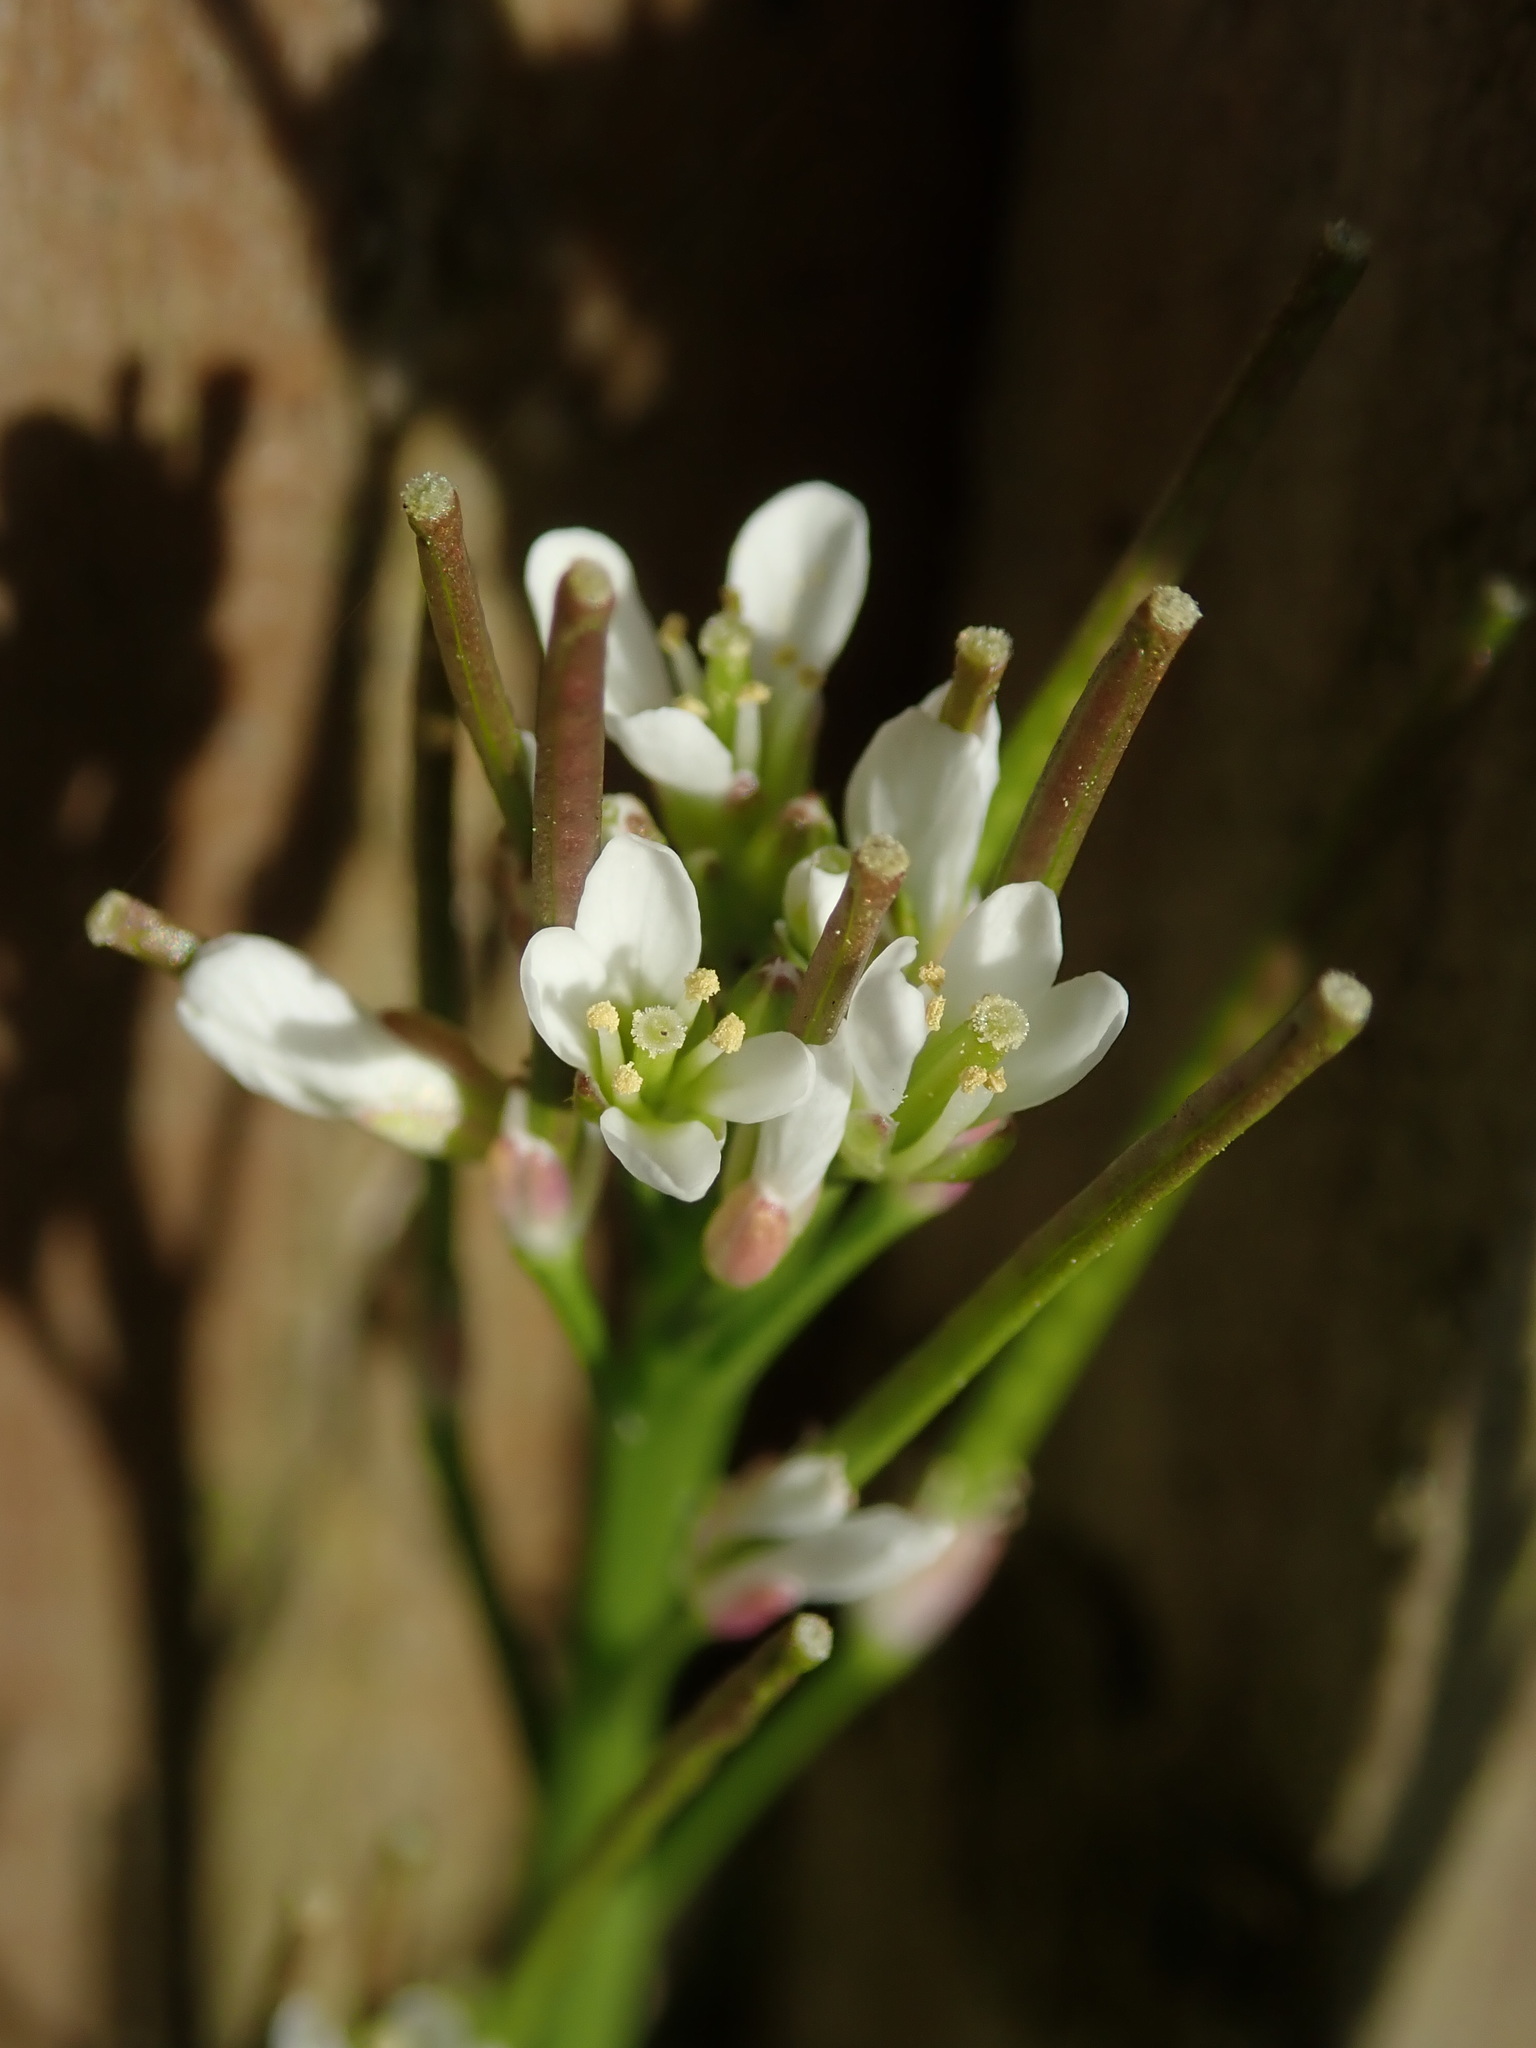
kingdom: Plantae
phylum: Tracheophyta
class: Magnoliopsida
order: Brassicales
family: Brassicaceae
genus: Cardamine
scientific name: Cardamine hirsuta
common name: Hairy bittercress
